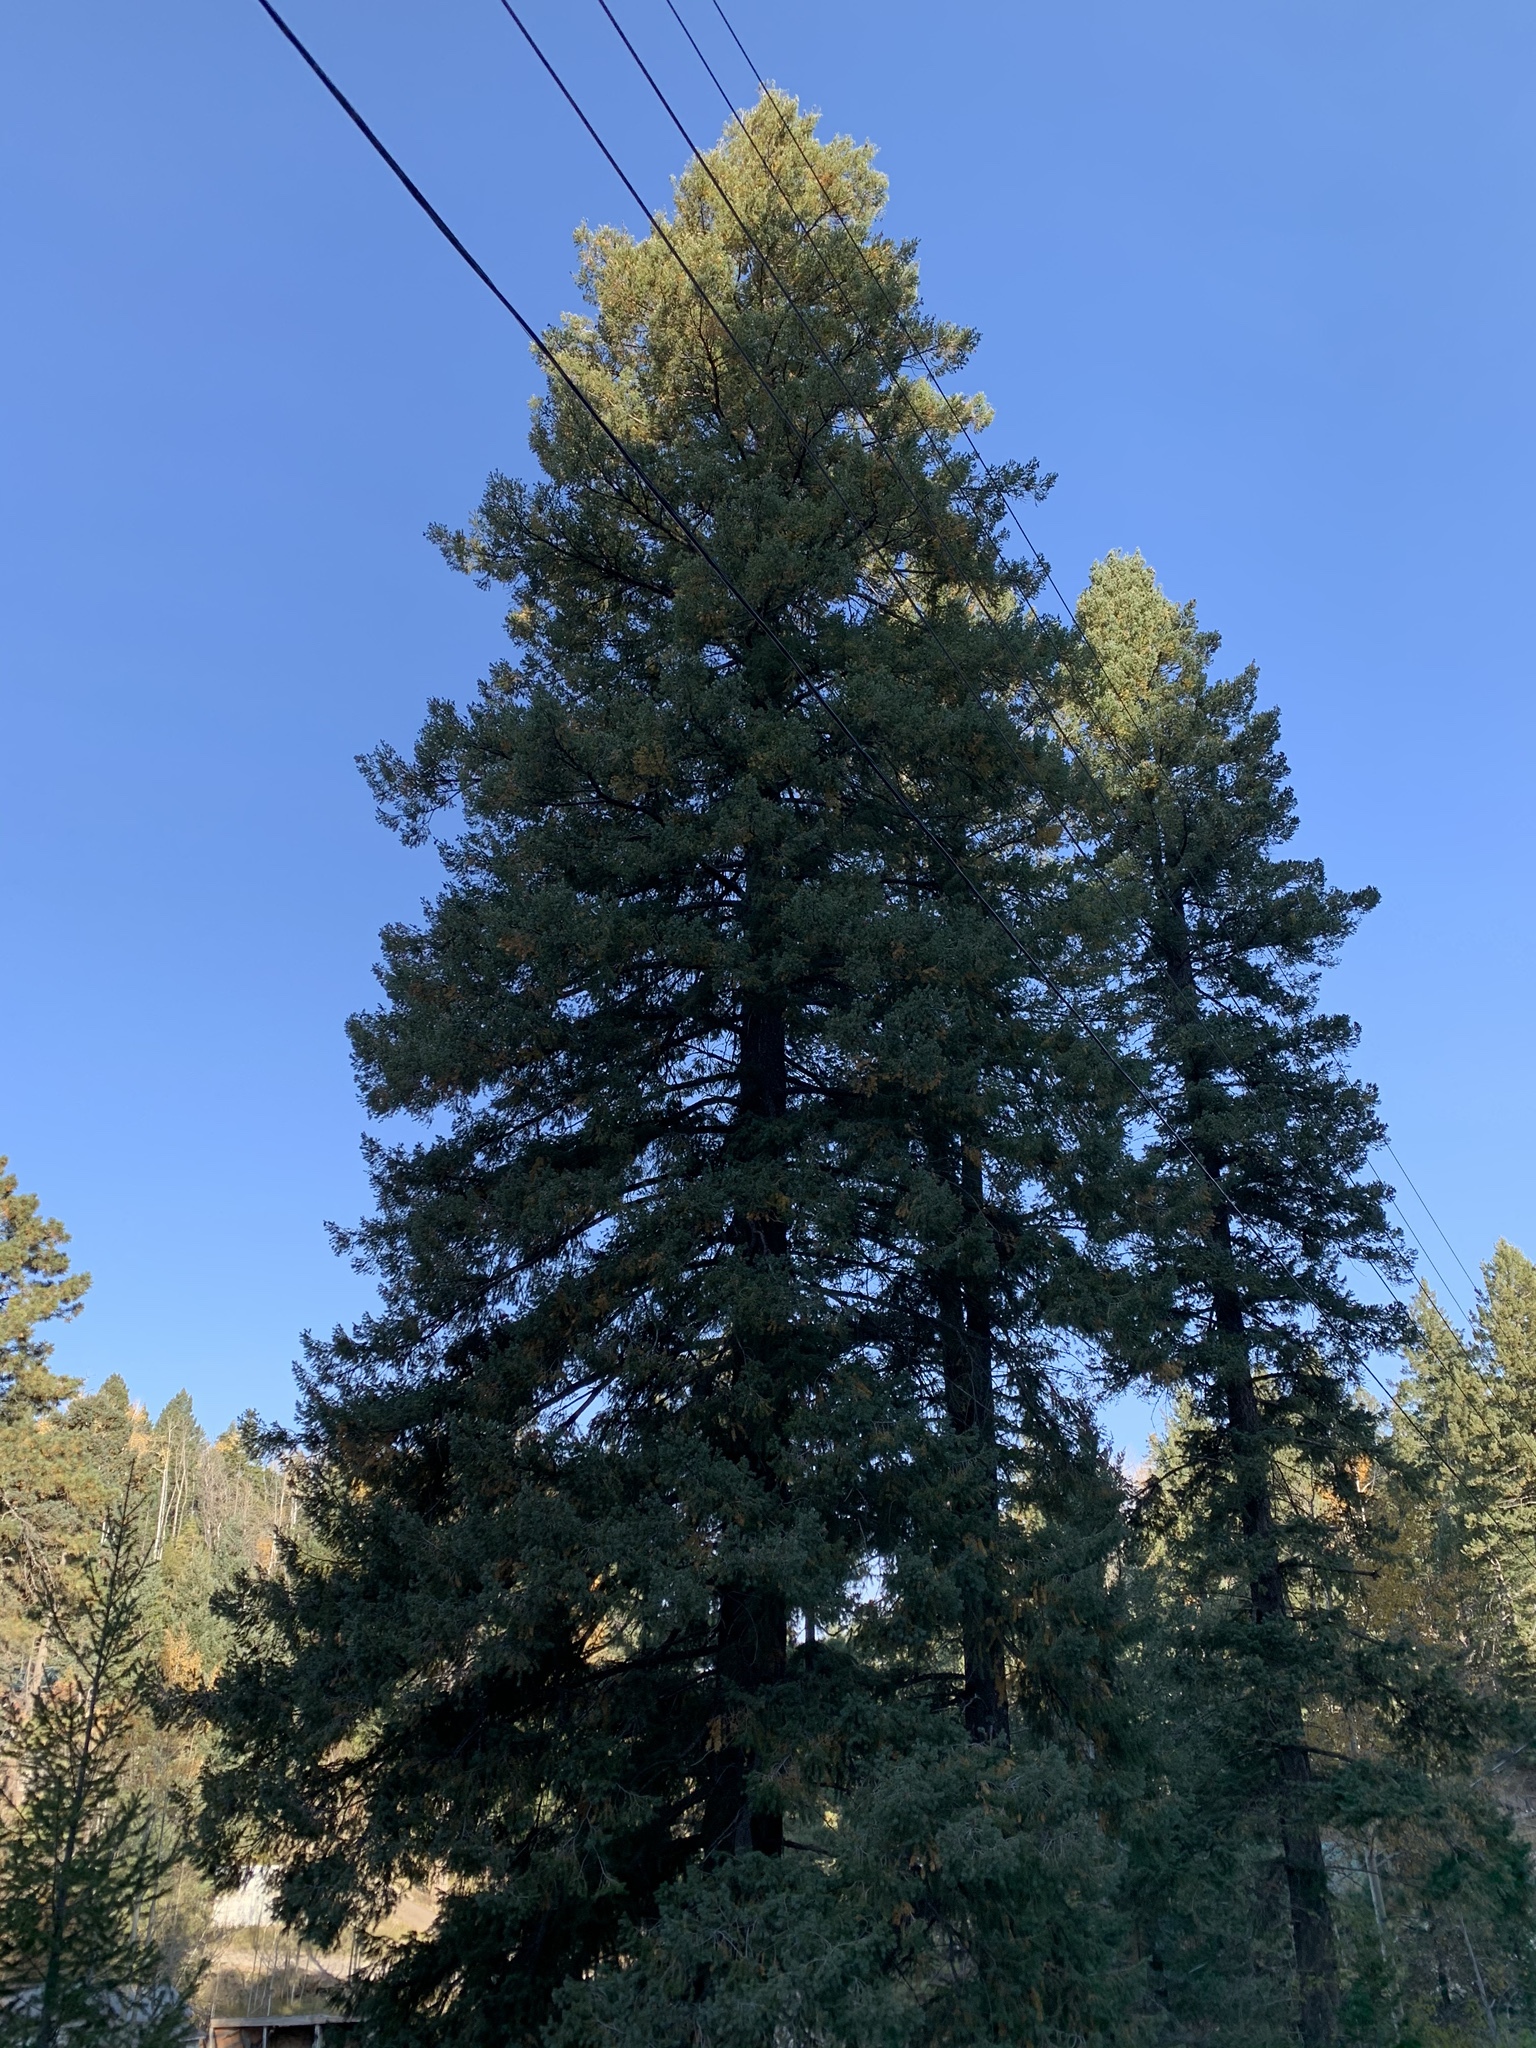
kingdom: Plantae
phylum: Tracheophyta
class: Pinopsida
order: Pinales
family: Pinaceae
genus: Pseudotsuga
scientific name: Pseudotsuga menziesii
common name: Douglas fir
